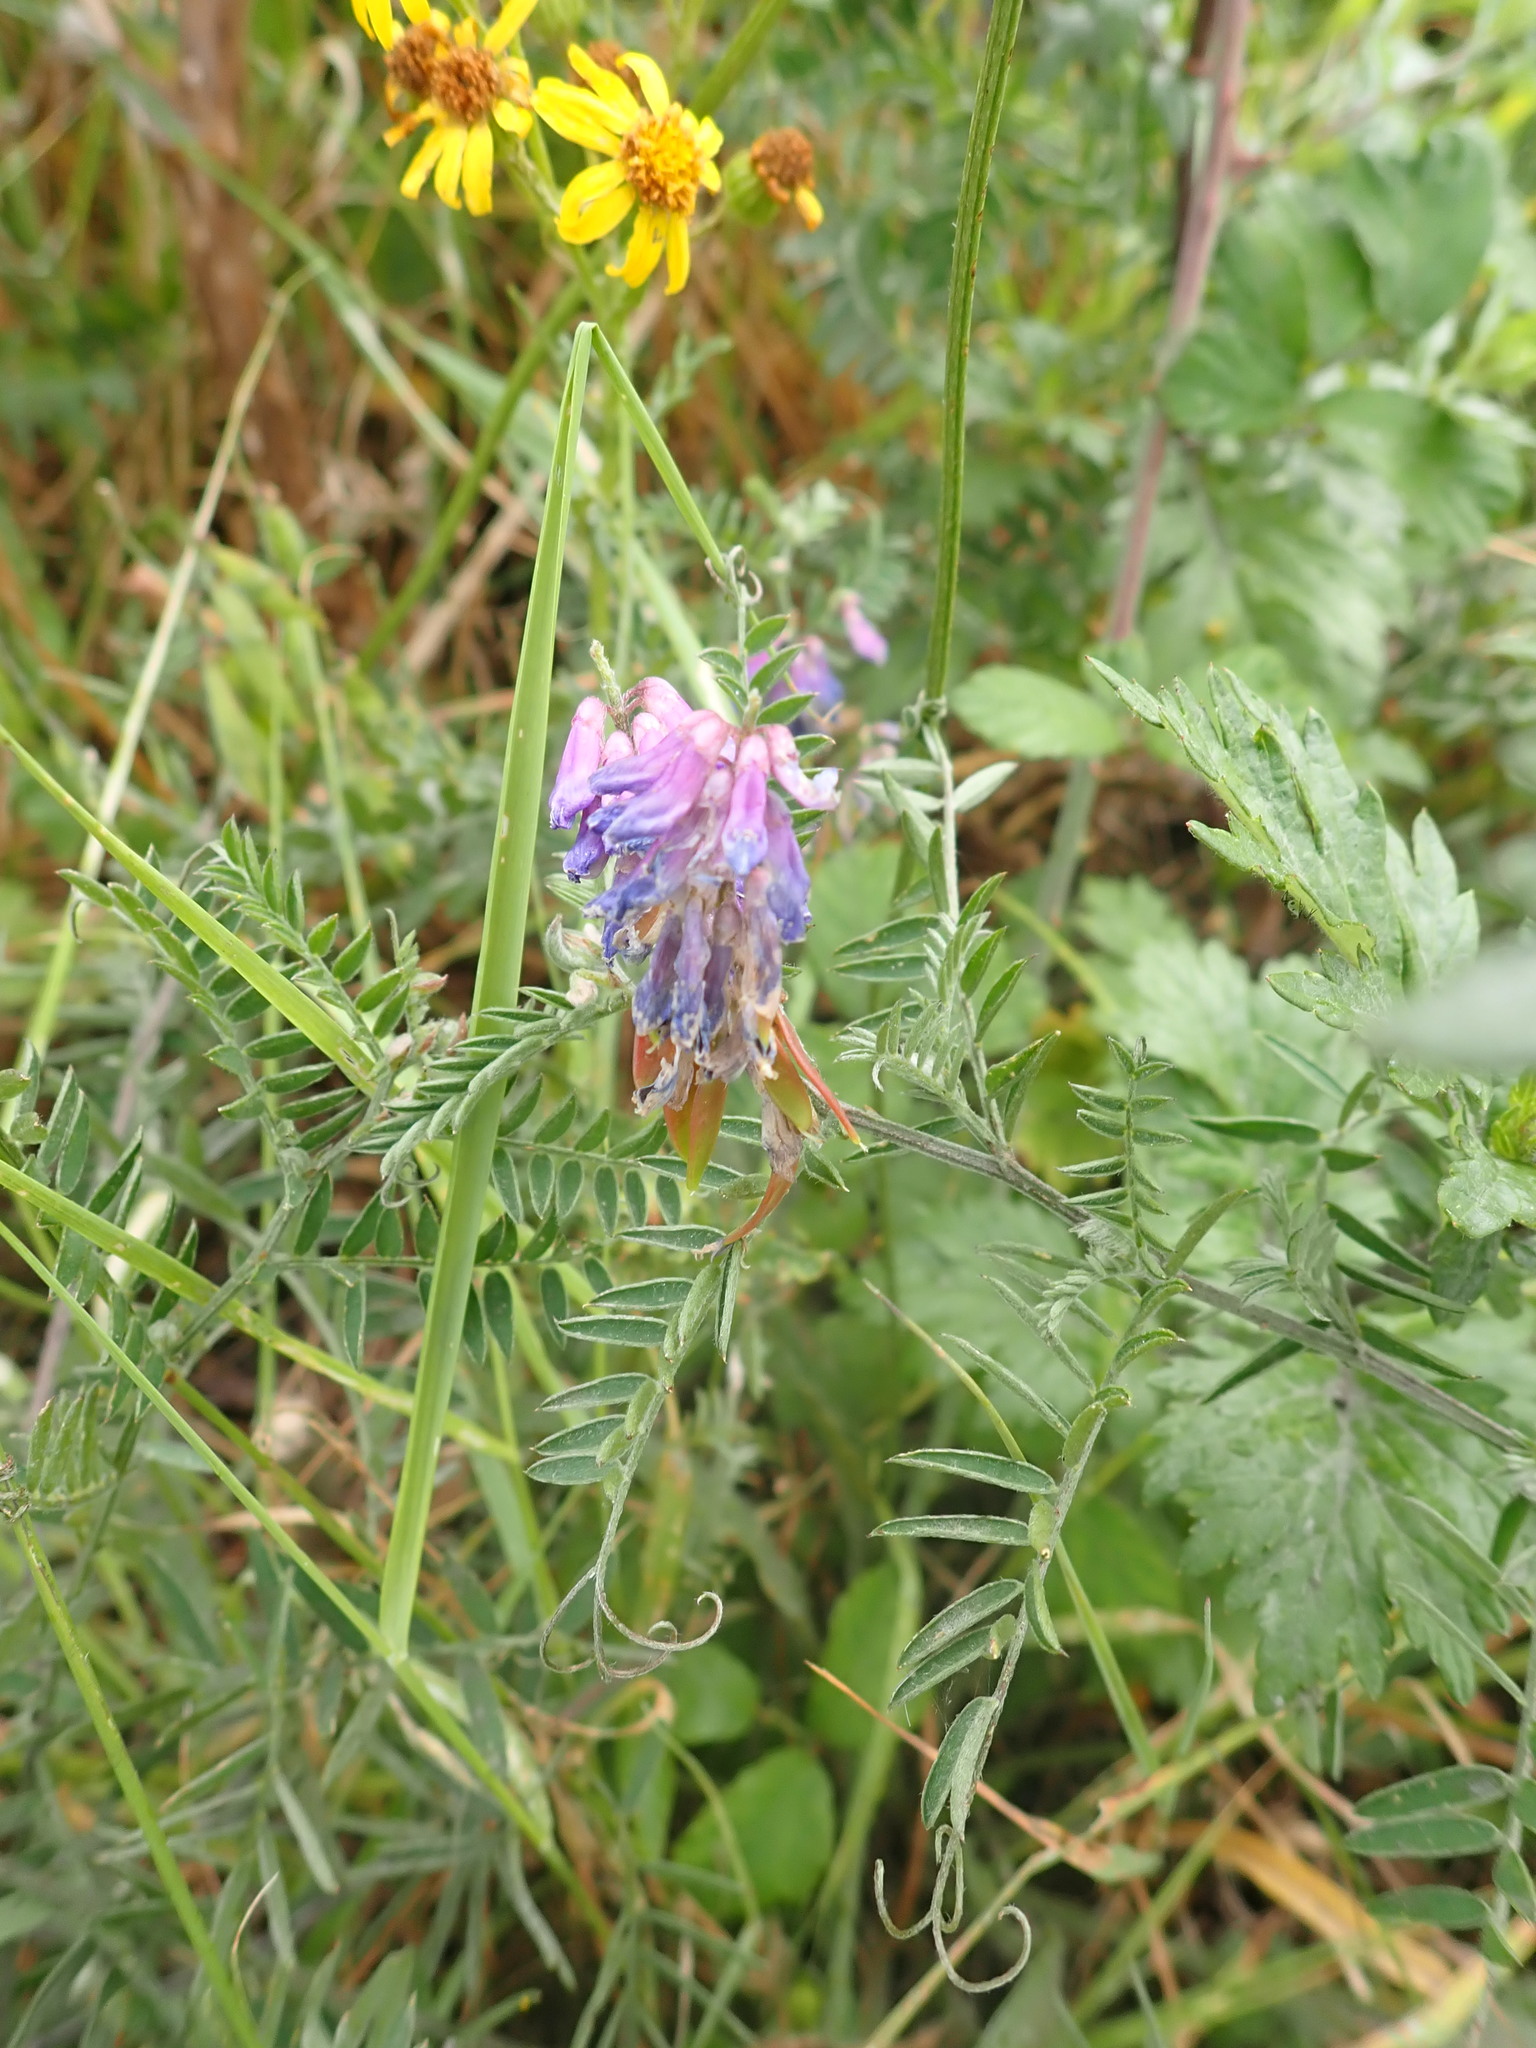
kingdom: Plantae
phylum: Tracheophyta
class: Magnoliopsida
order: Fabales
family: Fabaceae
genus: Vicia
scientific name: Vicia cracca
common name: Bird vetch
